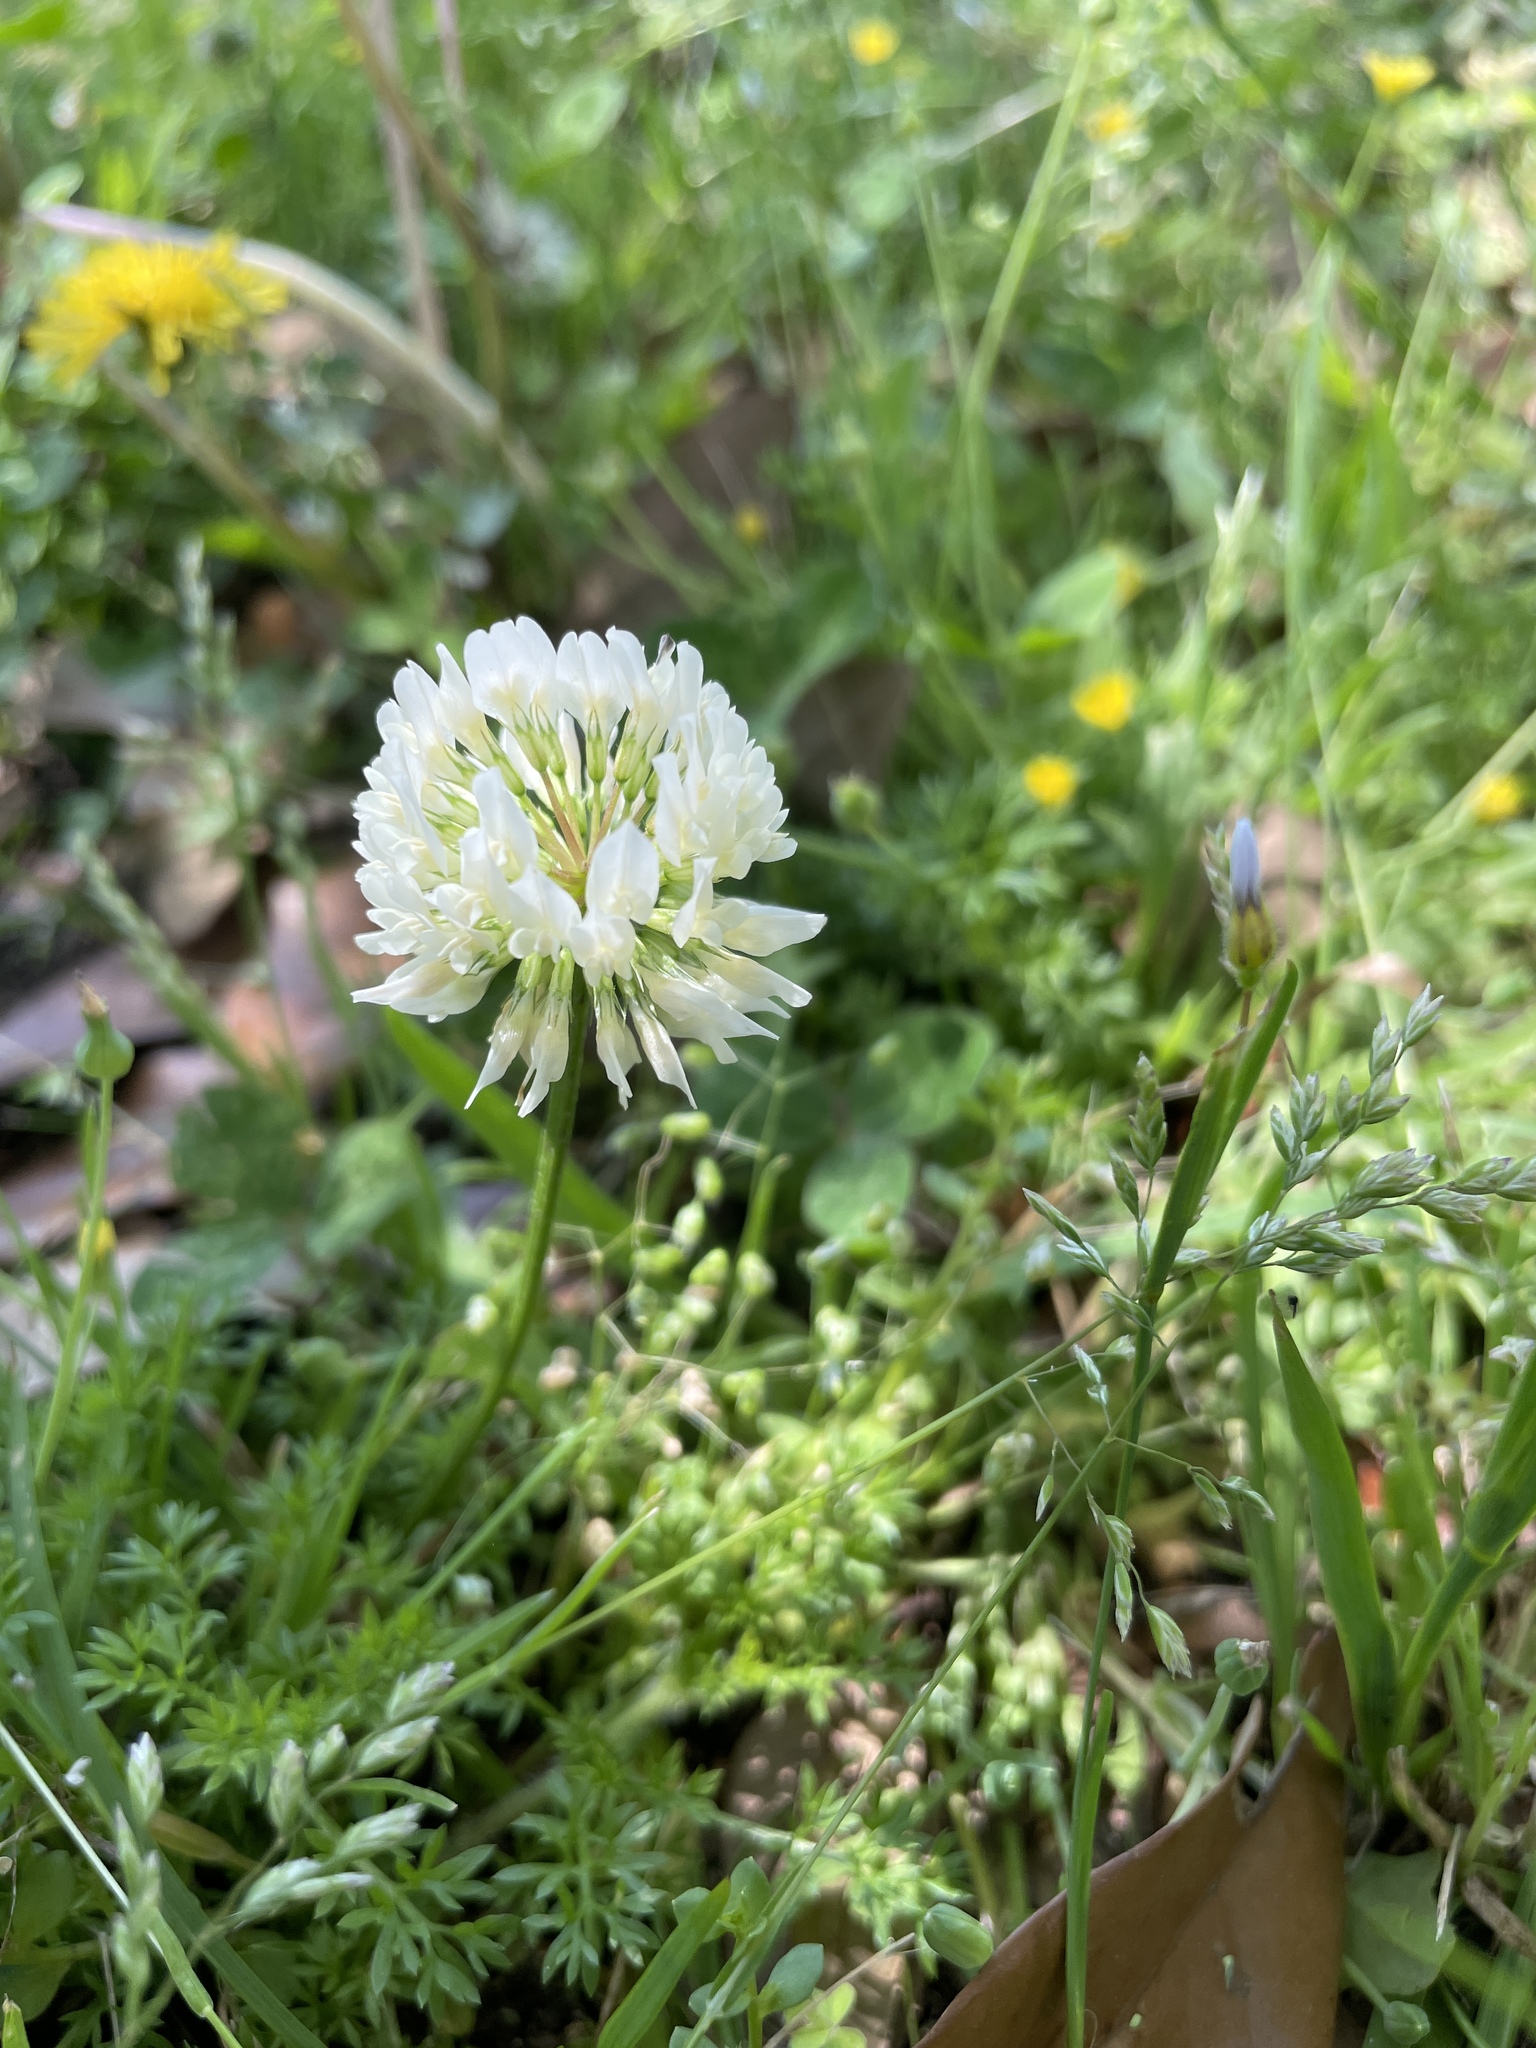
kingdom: Plantae
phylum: Tracheophyta
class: Magnoliopsida
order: Fabales
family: Fabaceae
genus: Trifolium
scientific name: Trifolium repens
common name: White clover
